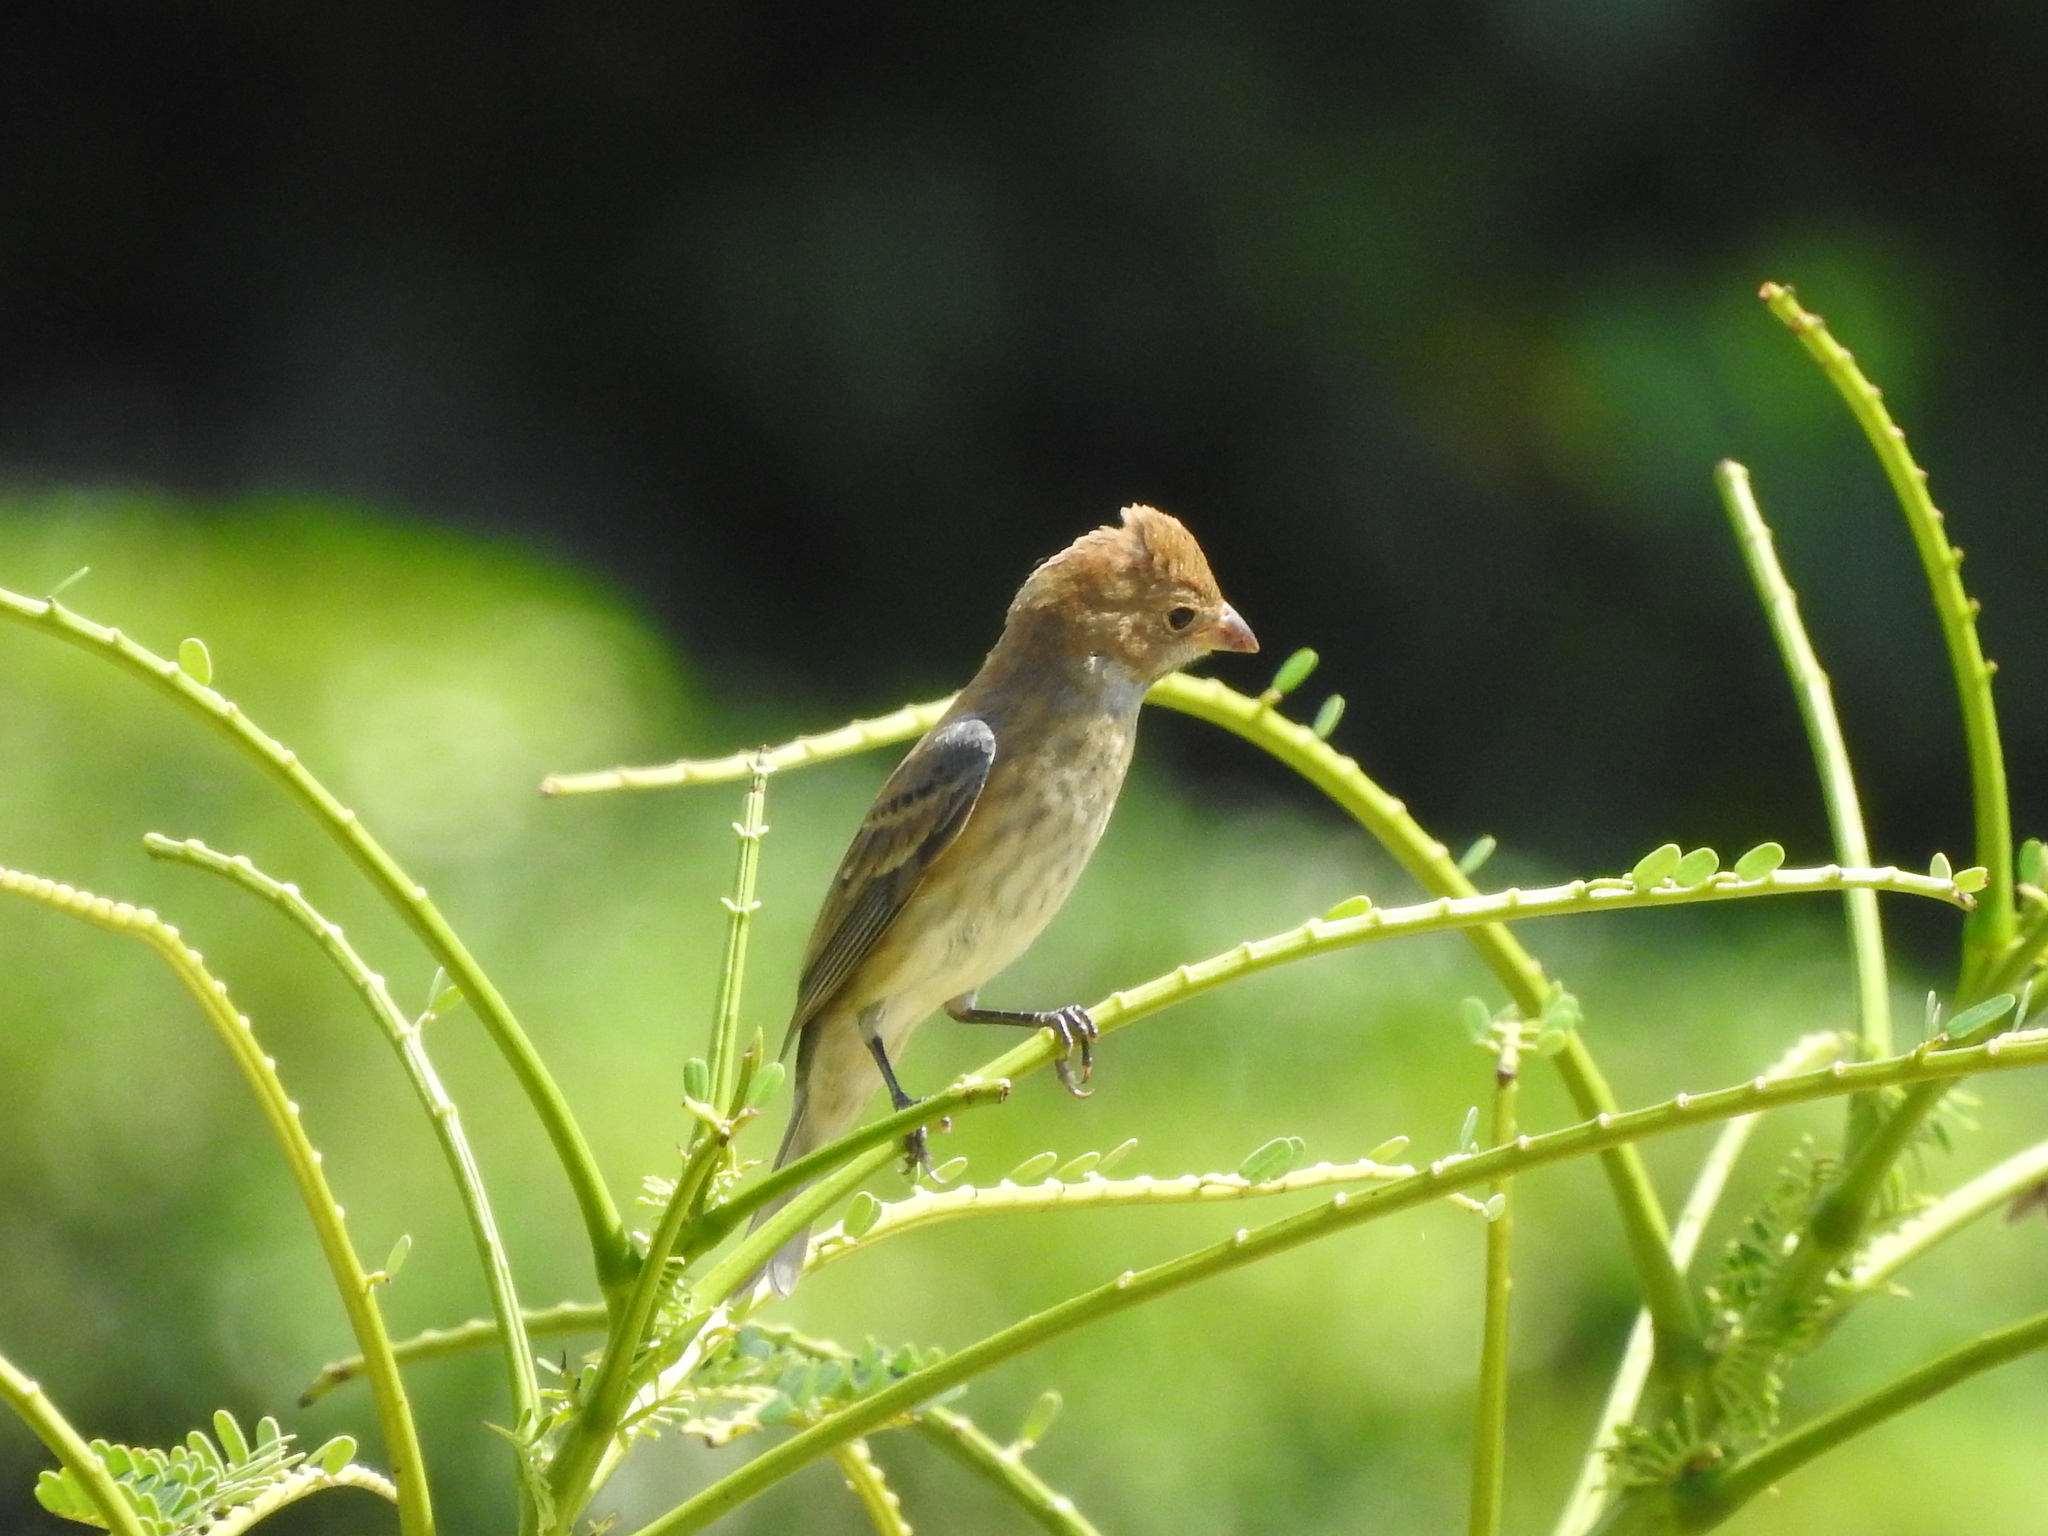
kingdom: Animalia
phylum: Chordata
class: Aves
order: Passeriformes
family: Cardinalidae
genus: Passerina
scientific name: Passerina cyanea
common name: Indigo bunting
